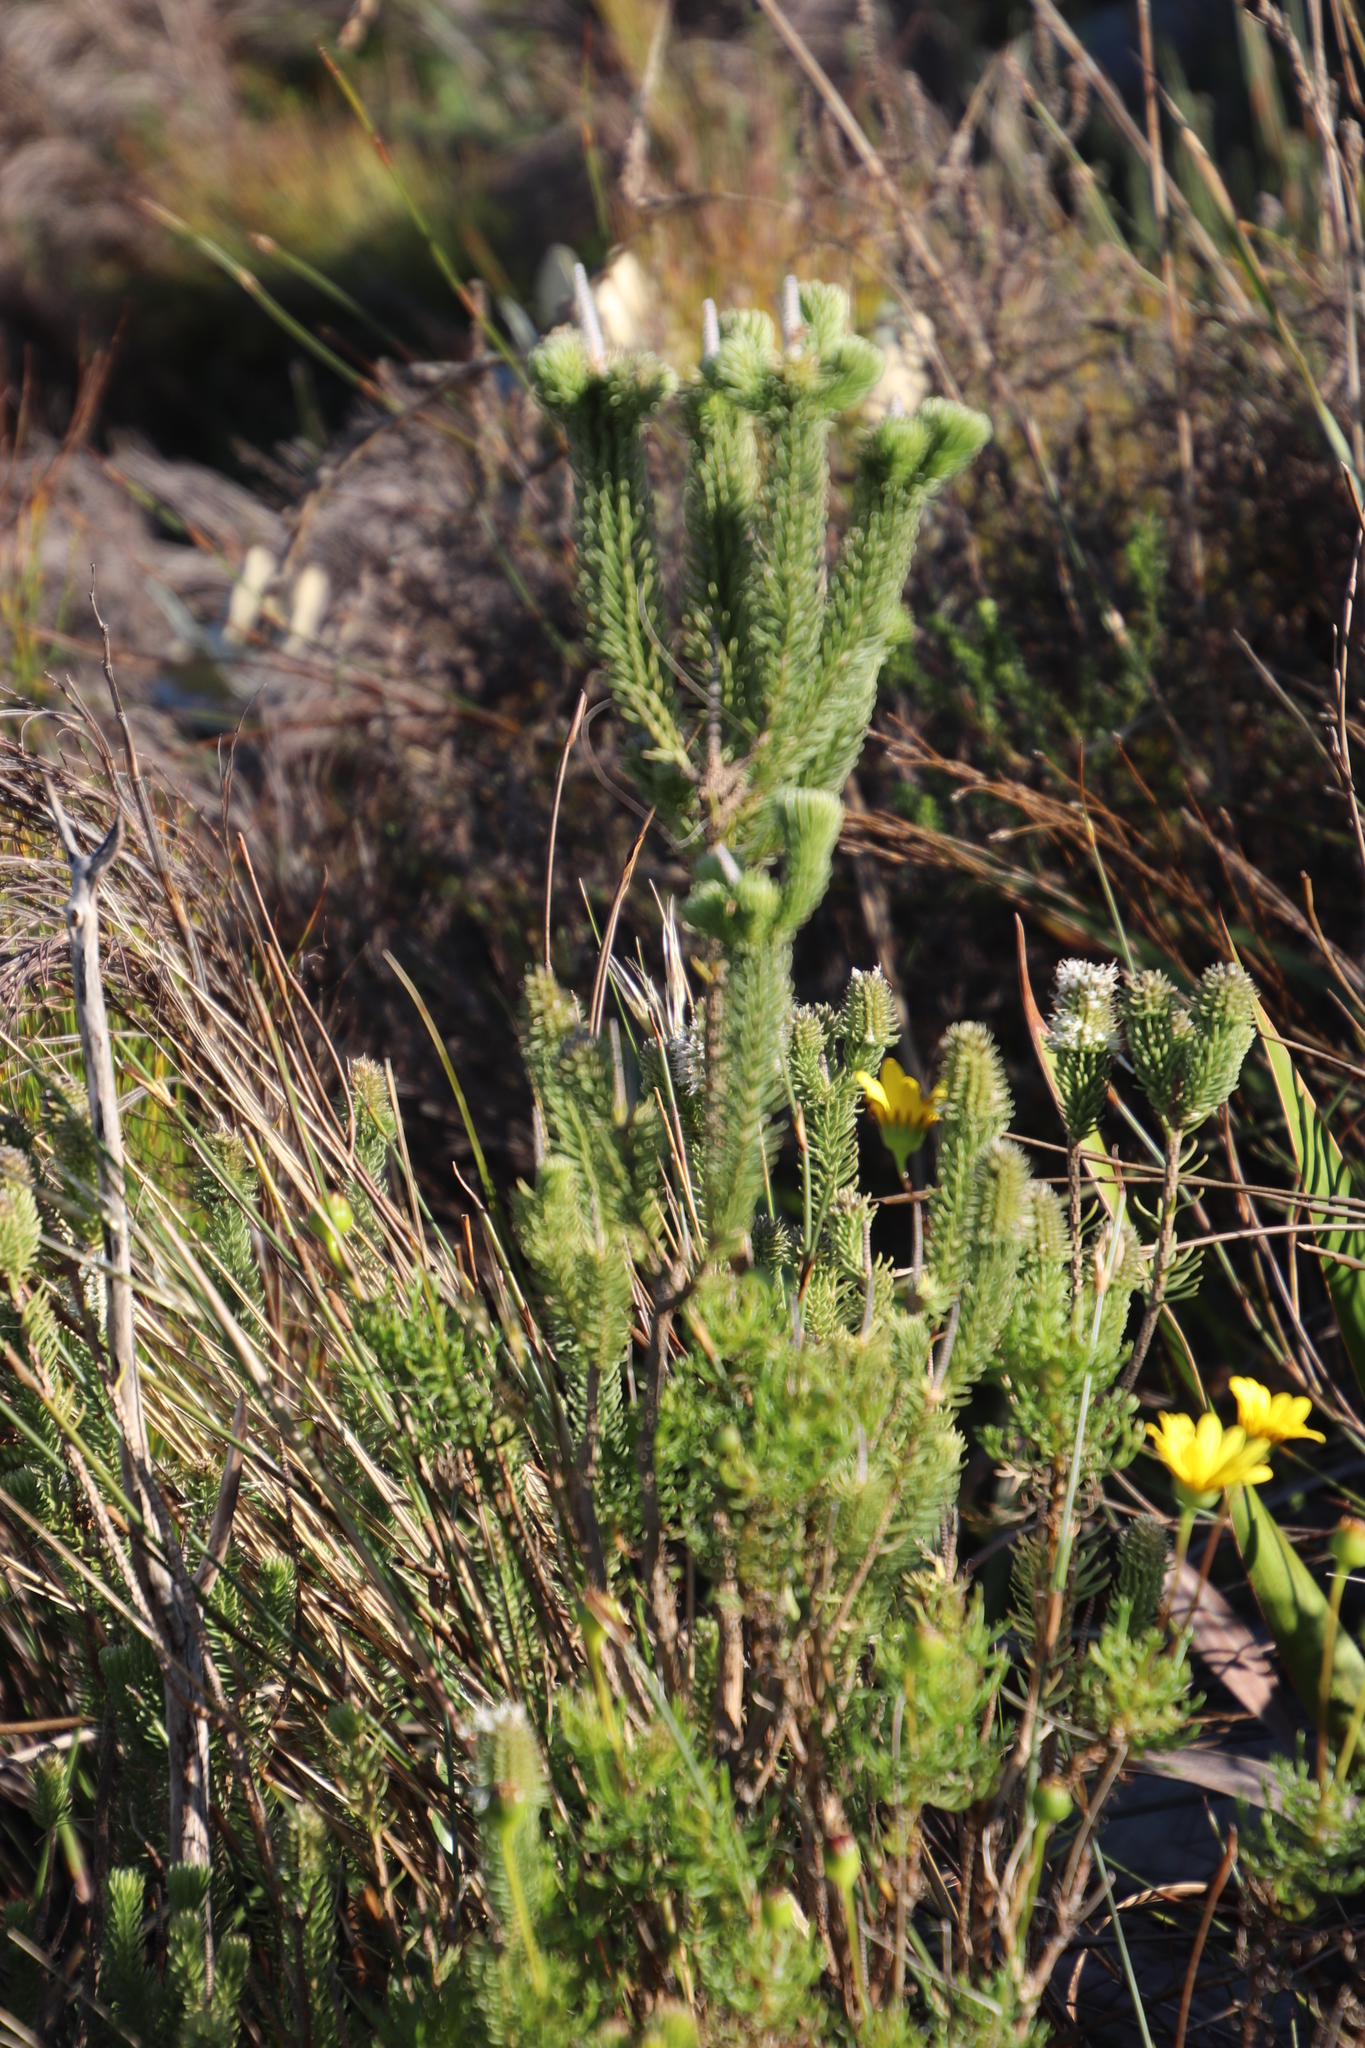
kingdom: Plantae
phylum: Tracheophyta
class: Magnoliopsida
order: Lamiales
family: Stilbaceae
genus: Stilbe
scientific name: Stilbe vestita
